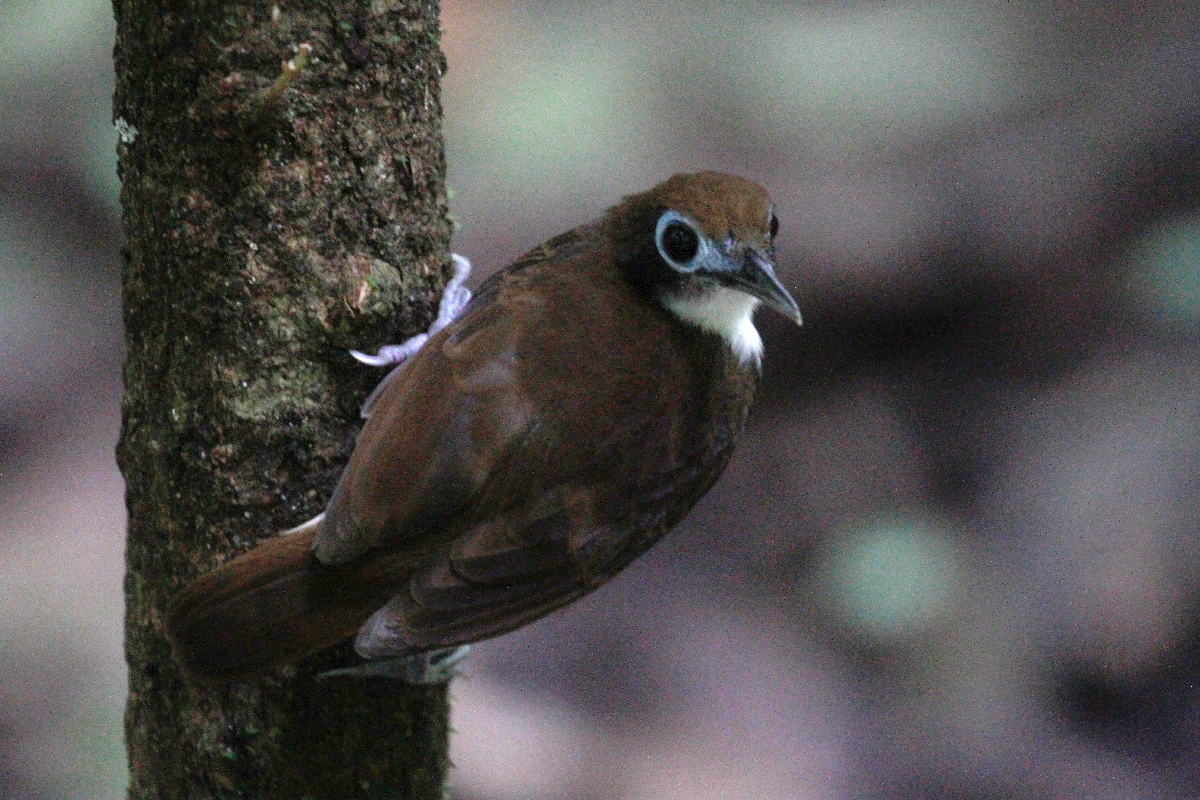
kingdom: Animalia
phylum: Chordata
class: Aves
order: Passeriformes
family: Thamnophilidae
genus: Gymnopithys
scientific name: Gymnopithys leucaspis
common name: White-cheeked antbird
